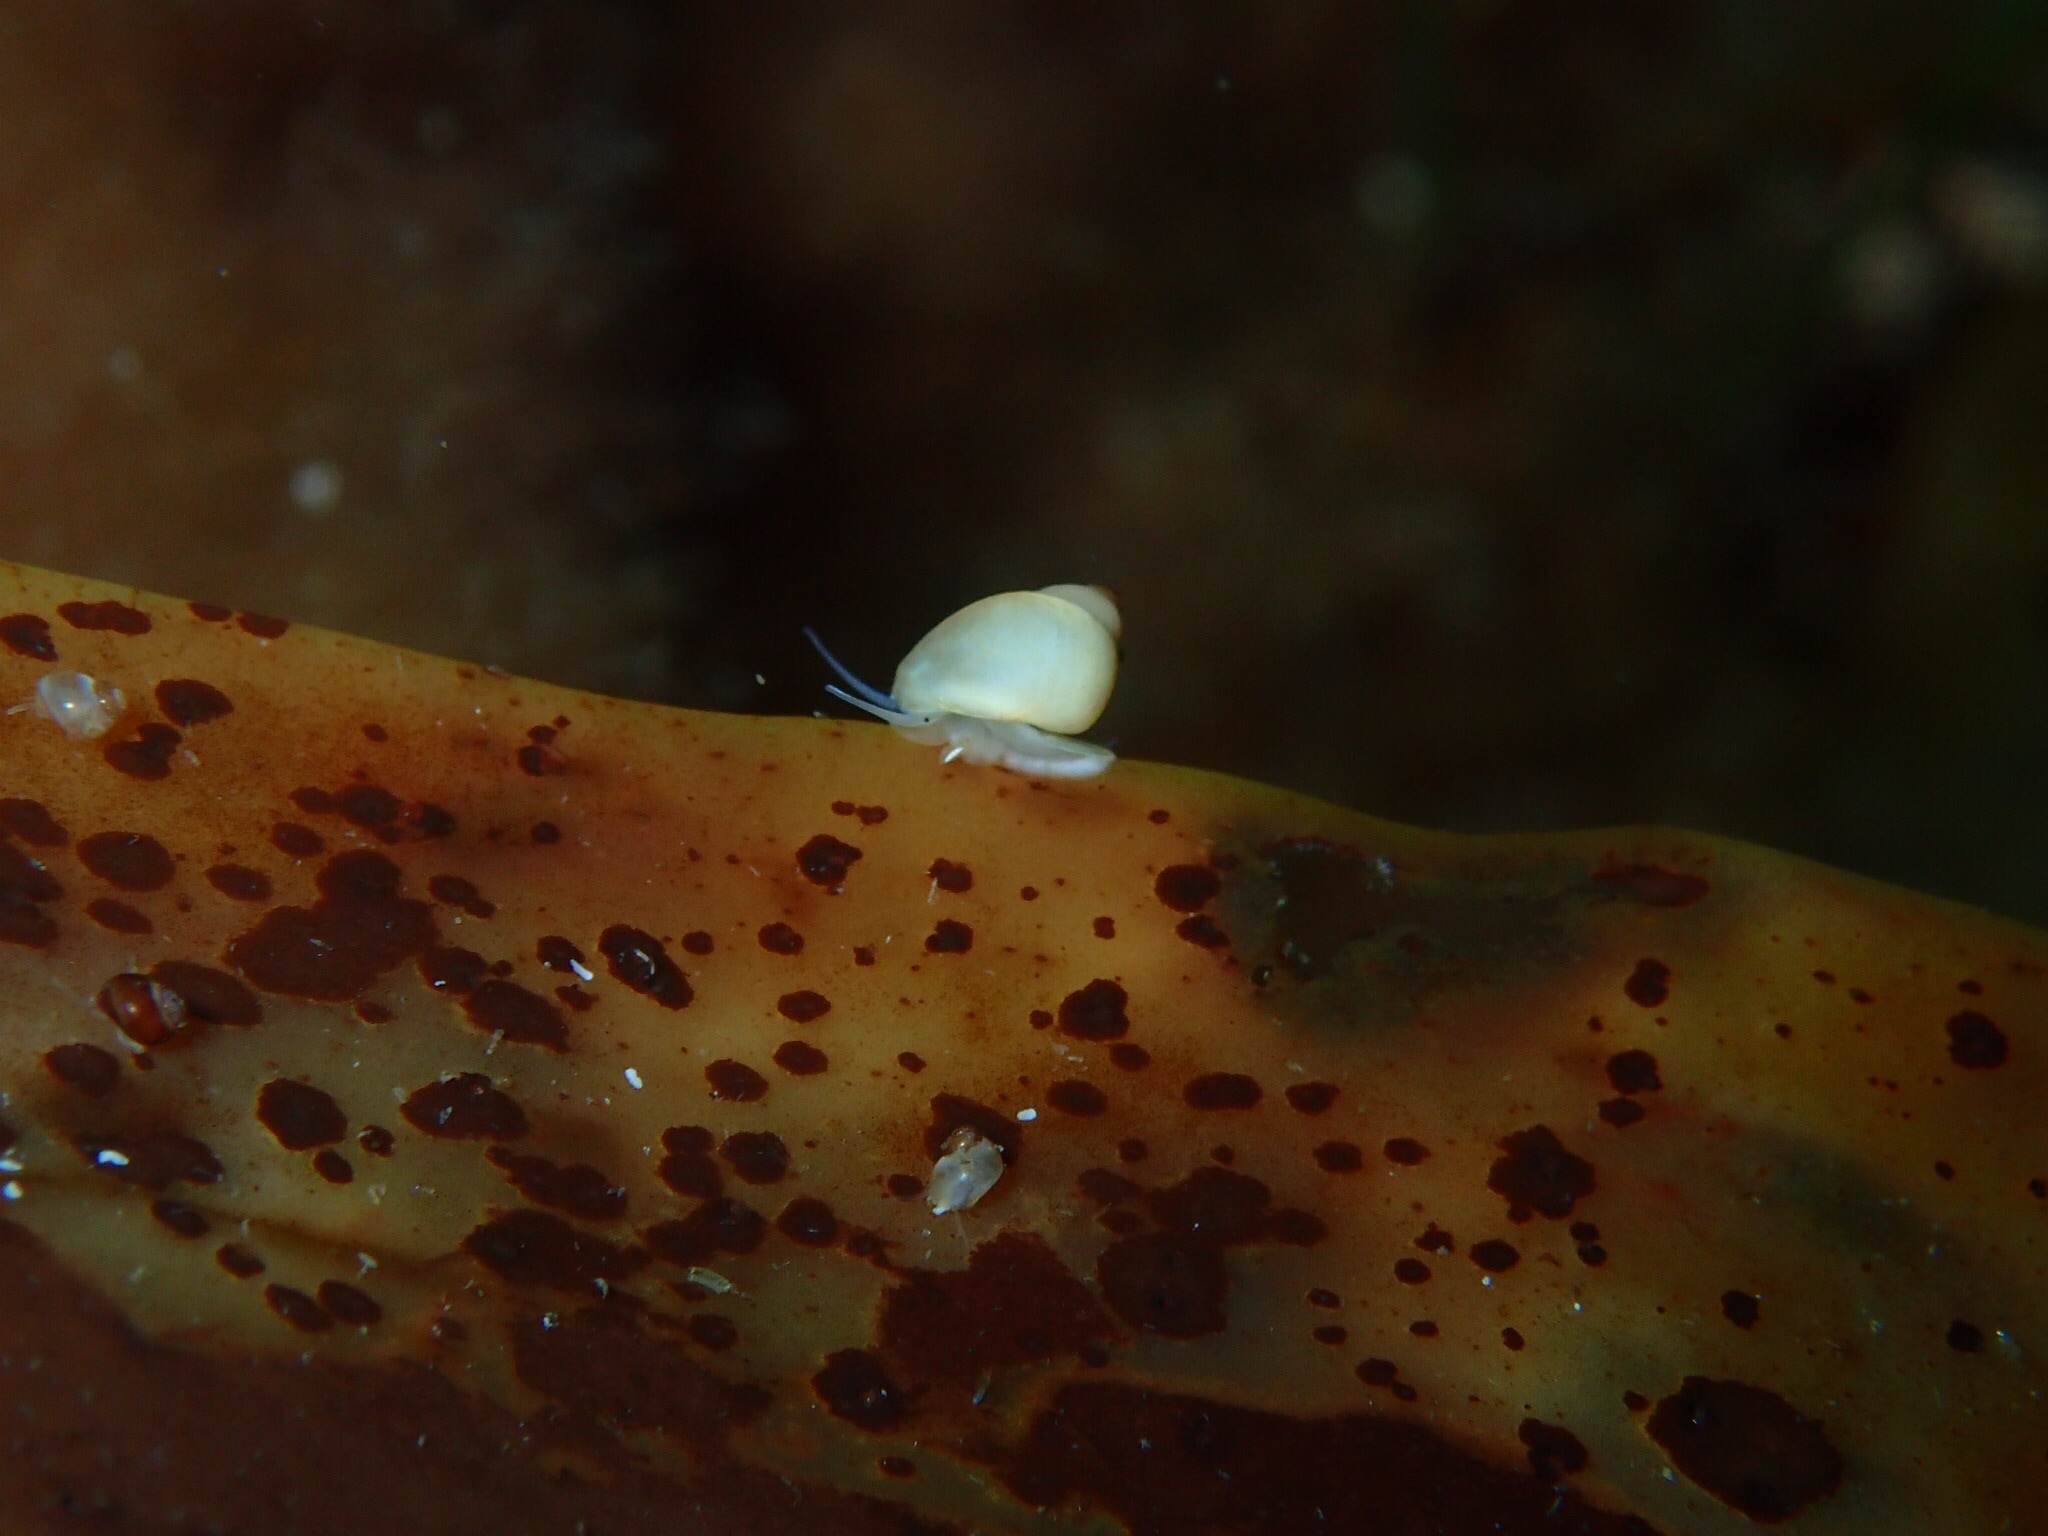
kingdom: Animalia
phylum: Mollusca
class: Gastropoda
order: Littorinimorpha
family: Littorinidae
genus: Lacuna
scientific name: Lacuna vincta
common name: Banded chink shell
